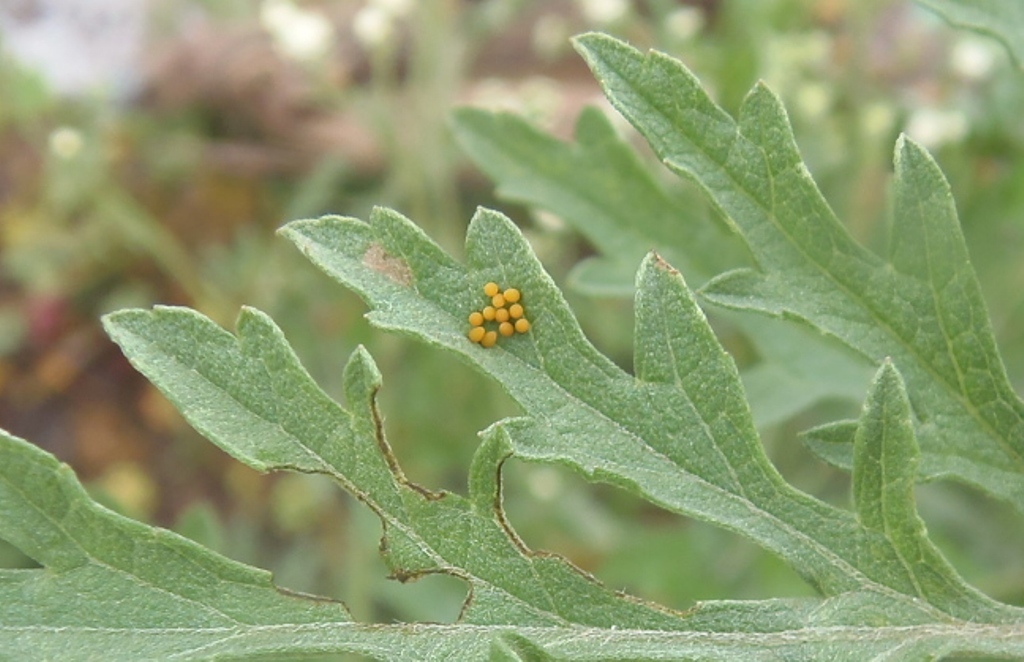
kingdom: Animalia
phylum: Arthropoda
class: Insecta
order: Coleoptera
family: Chrysomelidae
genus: Leptinotarsa
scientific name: Leptinotarsa decemlineata
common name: Colorado potato beetle
